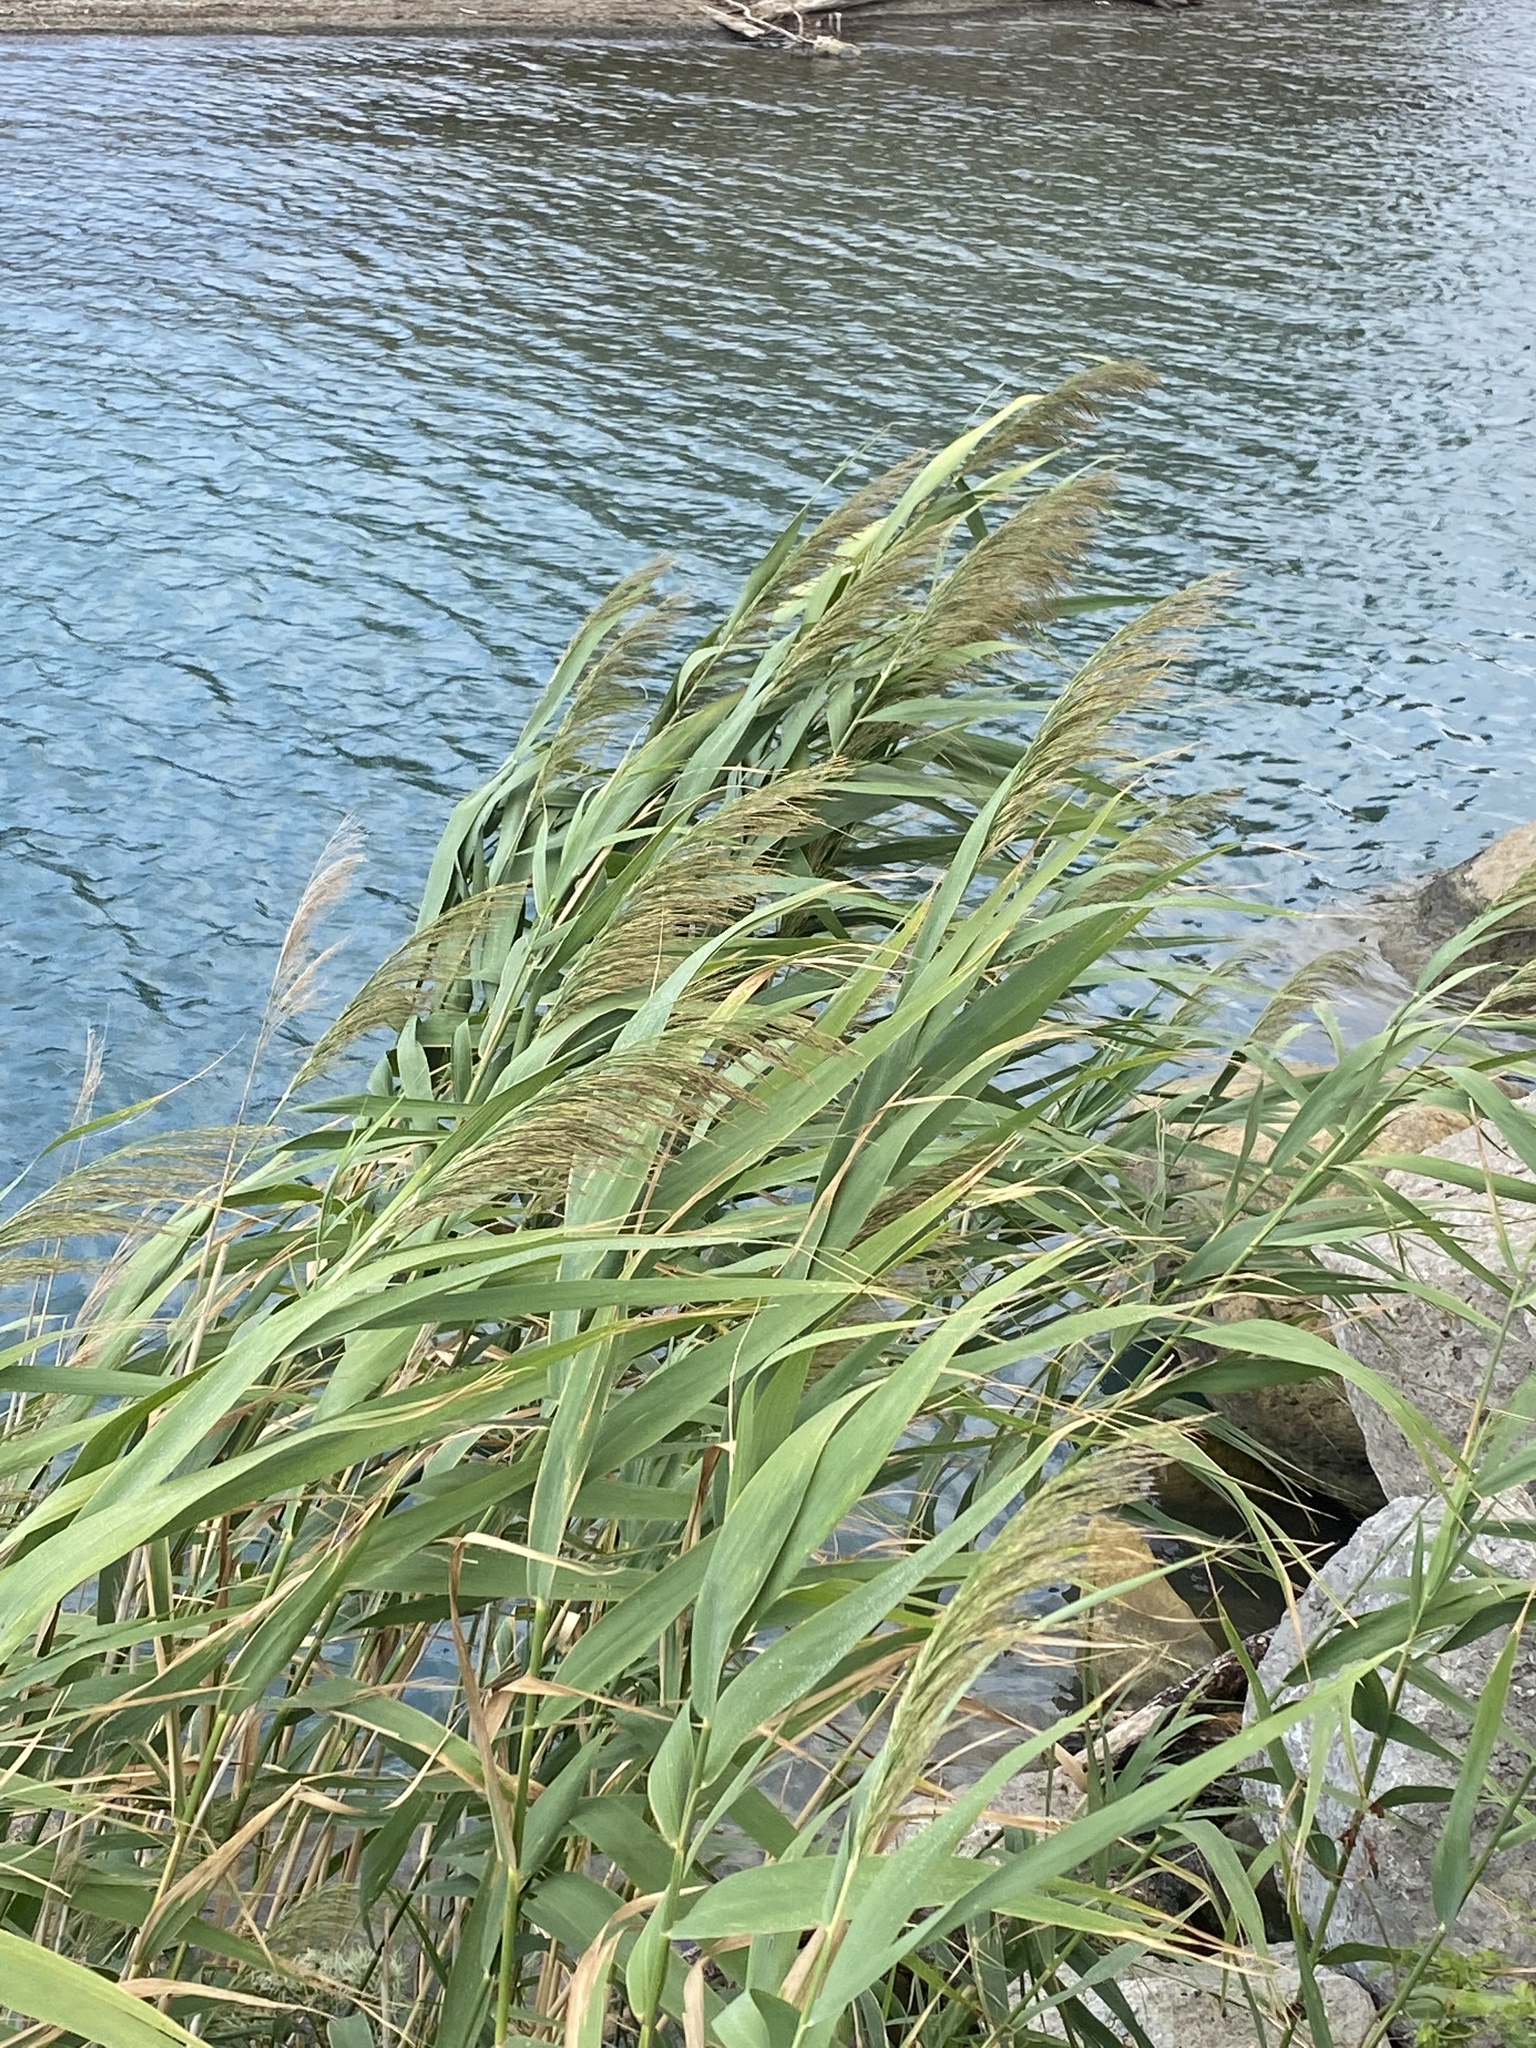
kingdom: Plantae
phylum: Tracheophyta
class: Liliopsida
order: Poales
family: Poaceae
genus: Phragmites
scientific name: Phragmites australis
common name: Common reed
